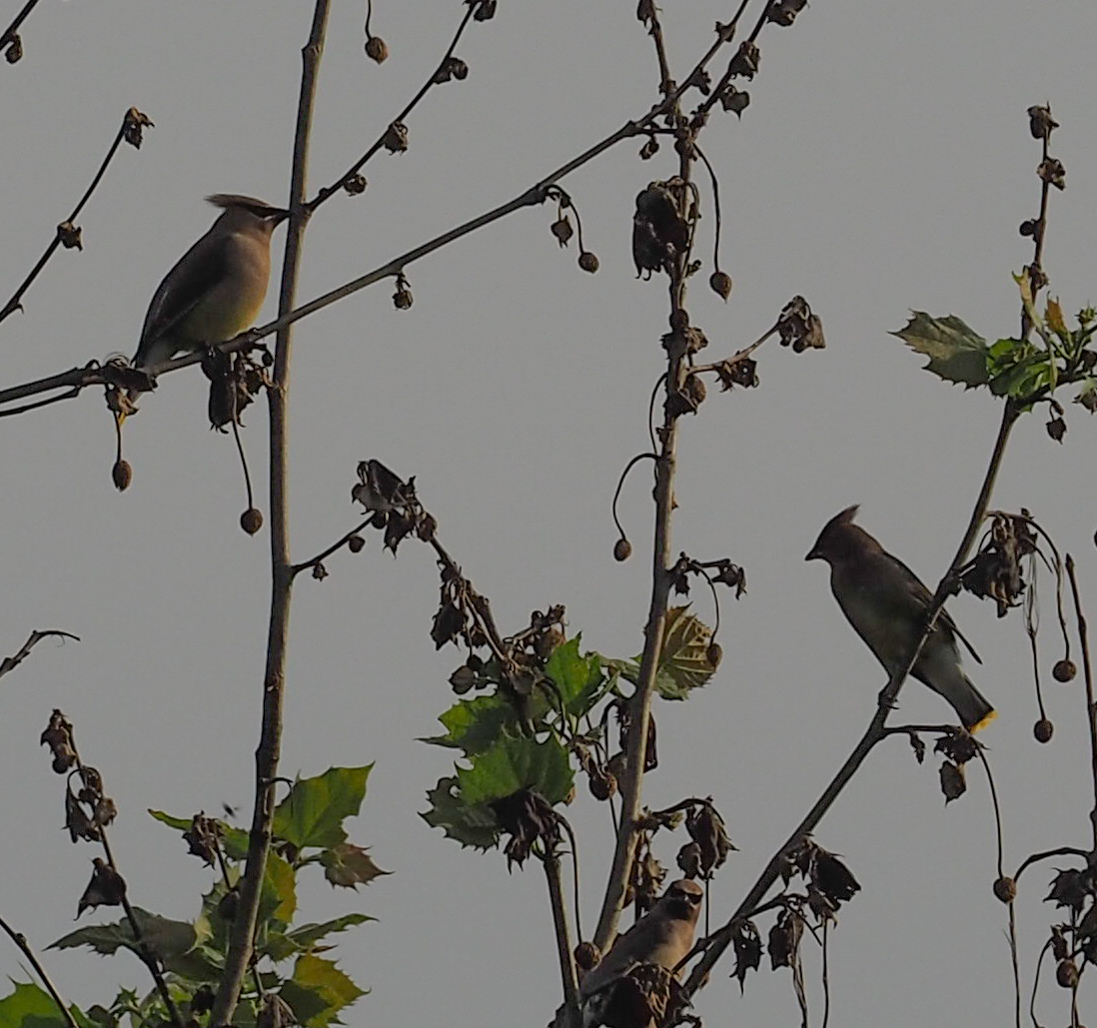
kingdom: Animalia
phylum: Chordata
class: Aves
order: Passeriformes
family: Bombycillidae
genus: Bombycilla
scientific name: Bombycilla cedrorum
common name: Cedar waxwing
